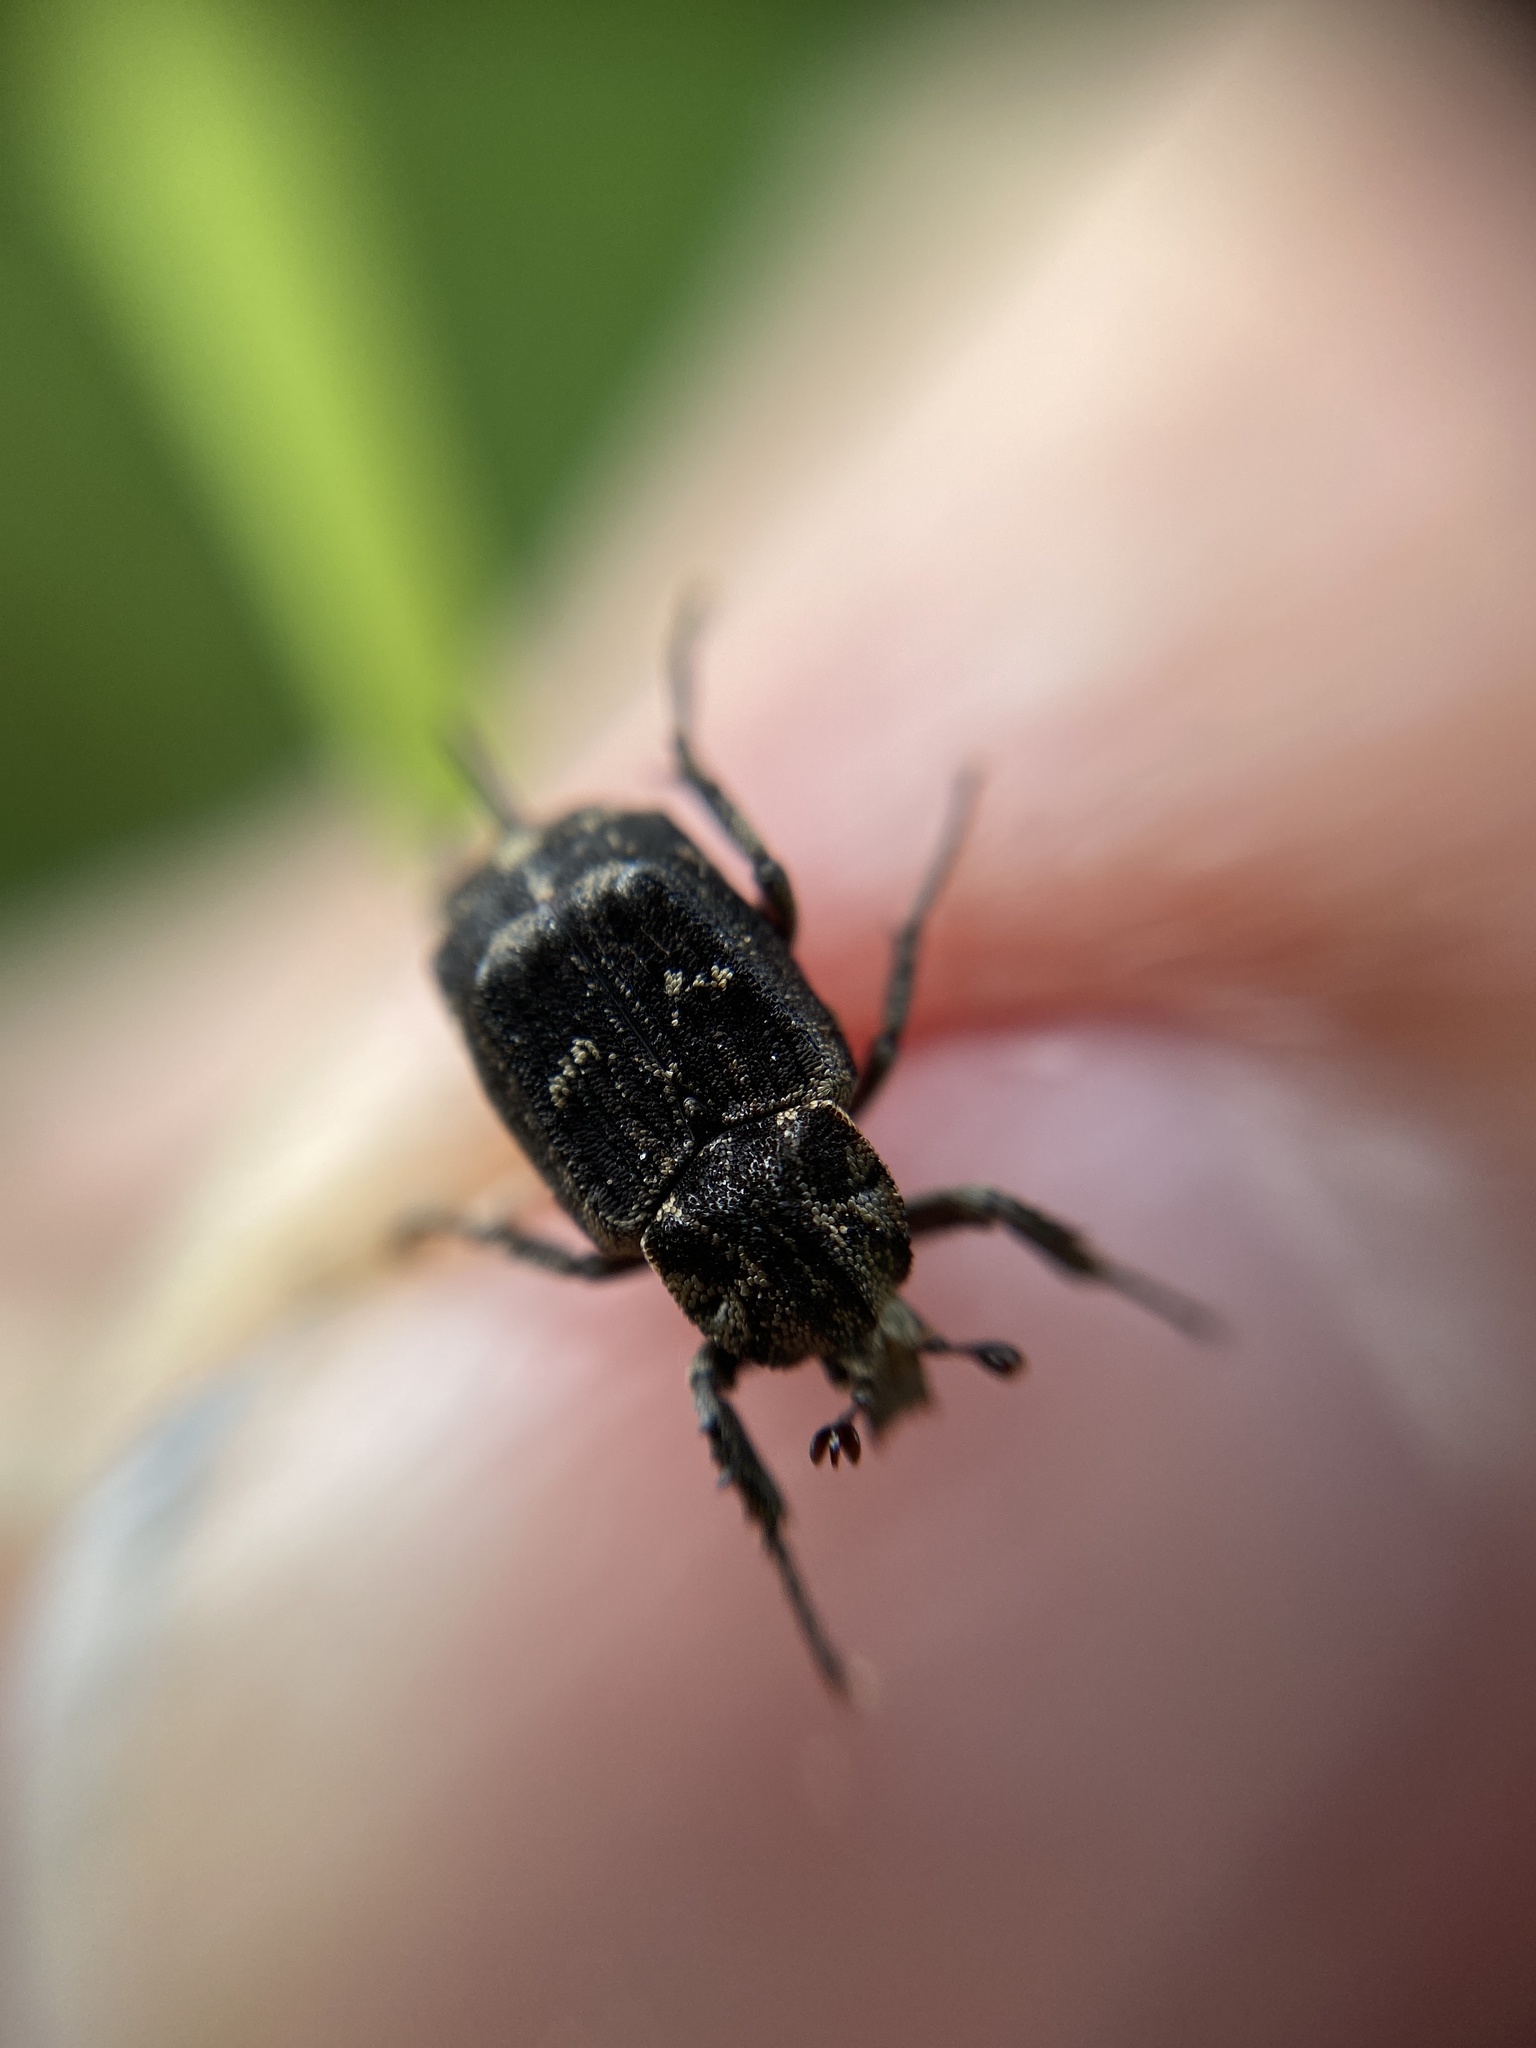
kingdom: Animalia
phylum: Arthropoda
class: Insecta
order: Coleoptera
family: Scarabaeidae
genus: Valgus
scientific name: Valgus hemipterus
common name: Bug flower chafer
